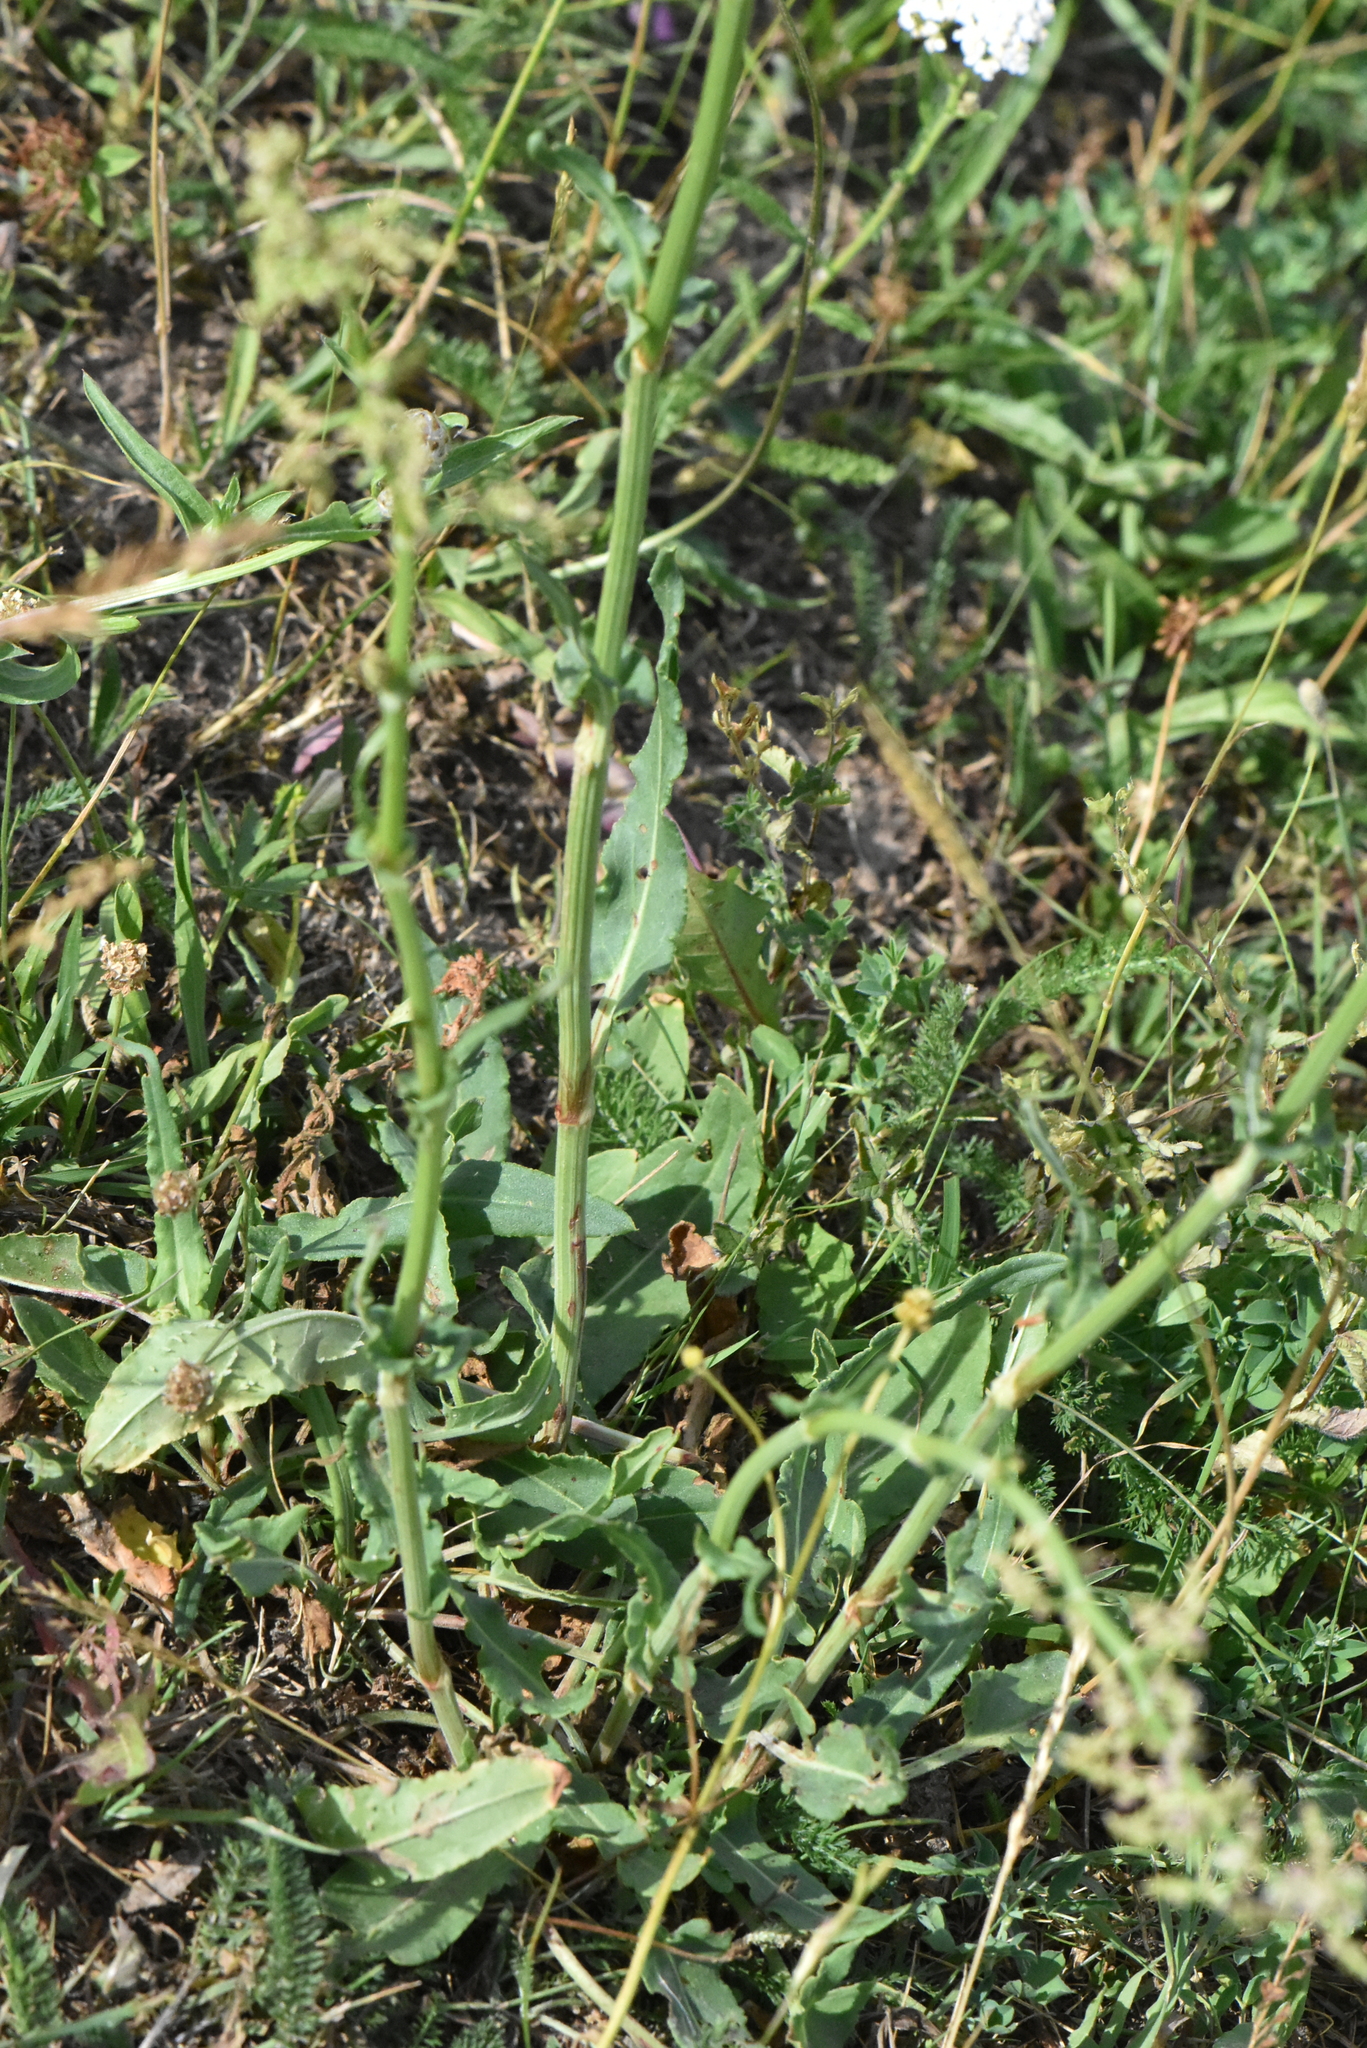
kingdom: Plantae
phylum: Tracheophyta
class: Magnoliopsida
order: Caryophyllales
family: Polygonaceae
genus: Rumex
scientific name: Rumex thyrsiflorus
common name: Garden sorrel
